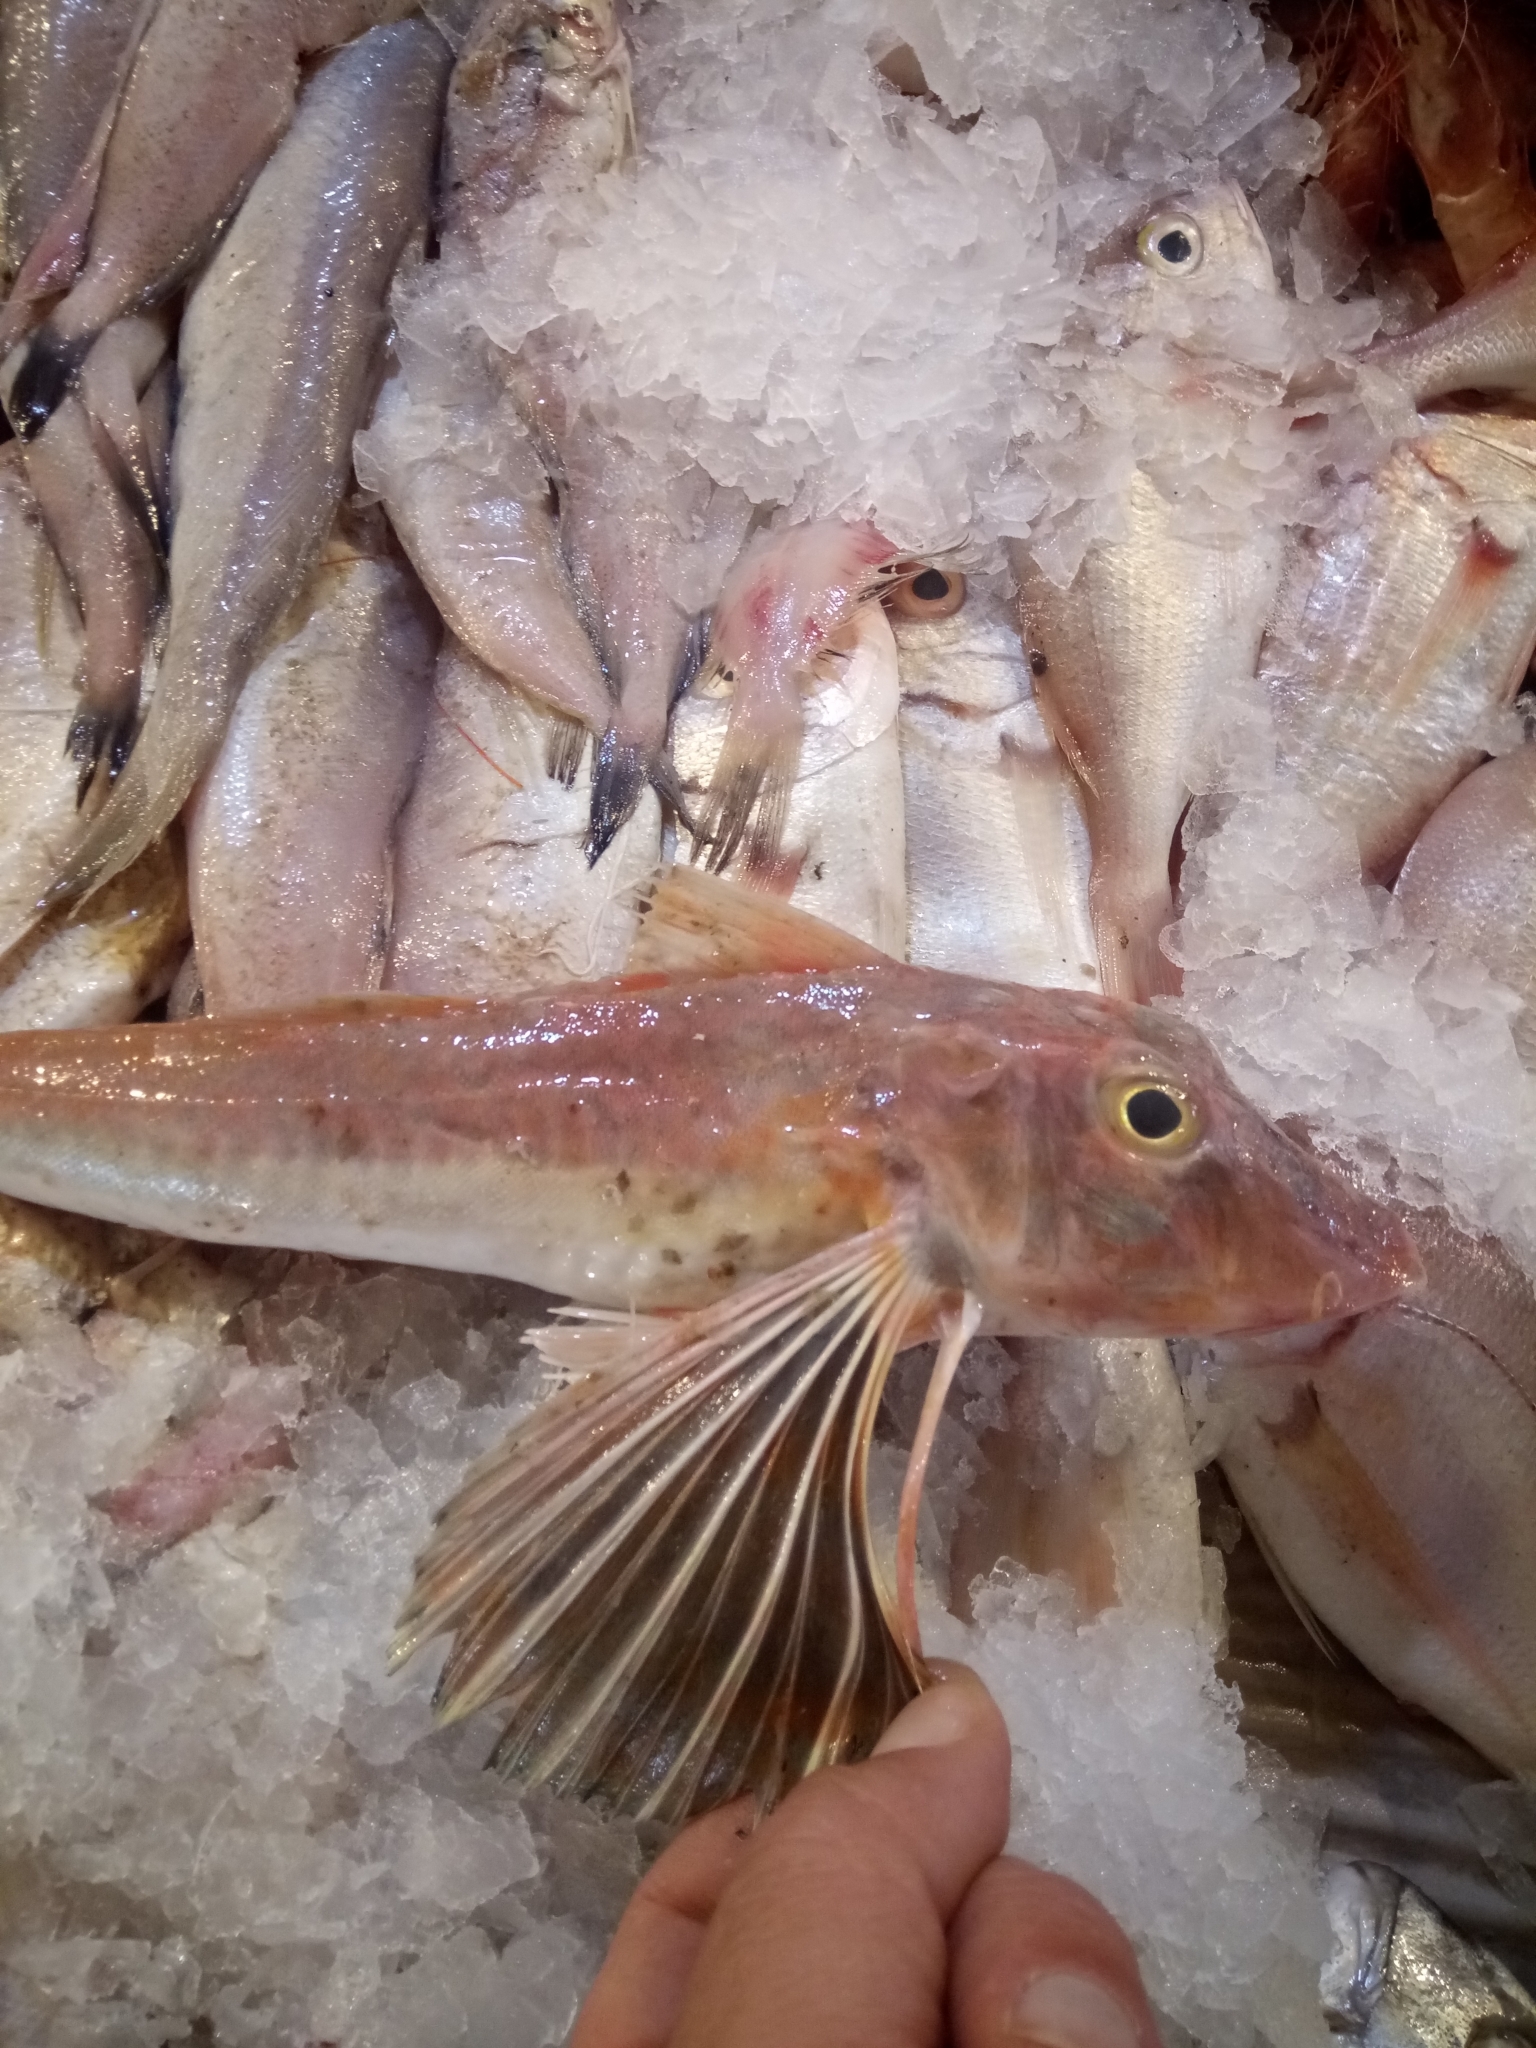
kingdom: Animalia
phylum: Chordata
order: Scorpaeniformes
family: Triglidae
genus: Chelidonichthys
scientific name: Chelidonichthys lucerna
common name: Tub gurnard
